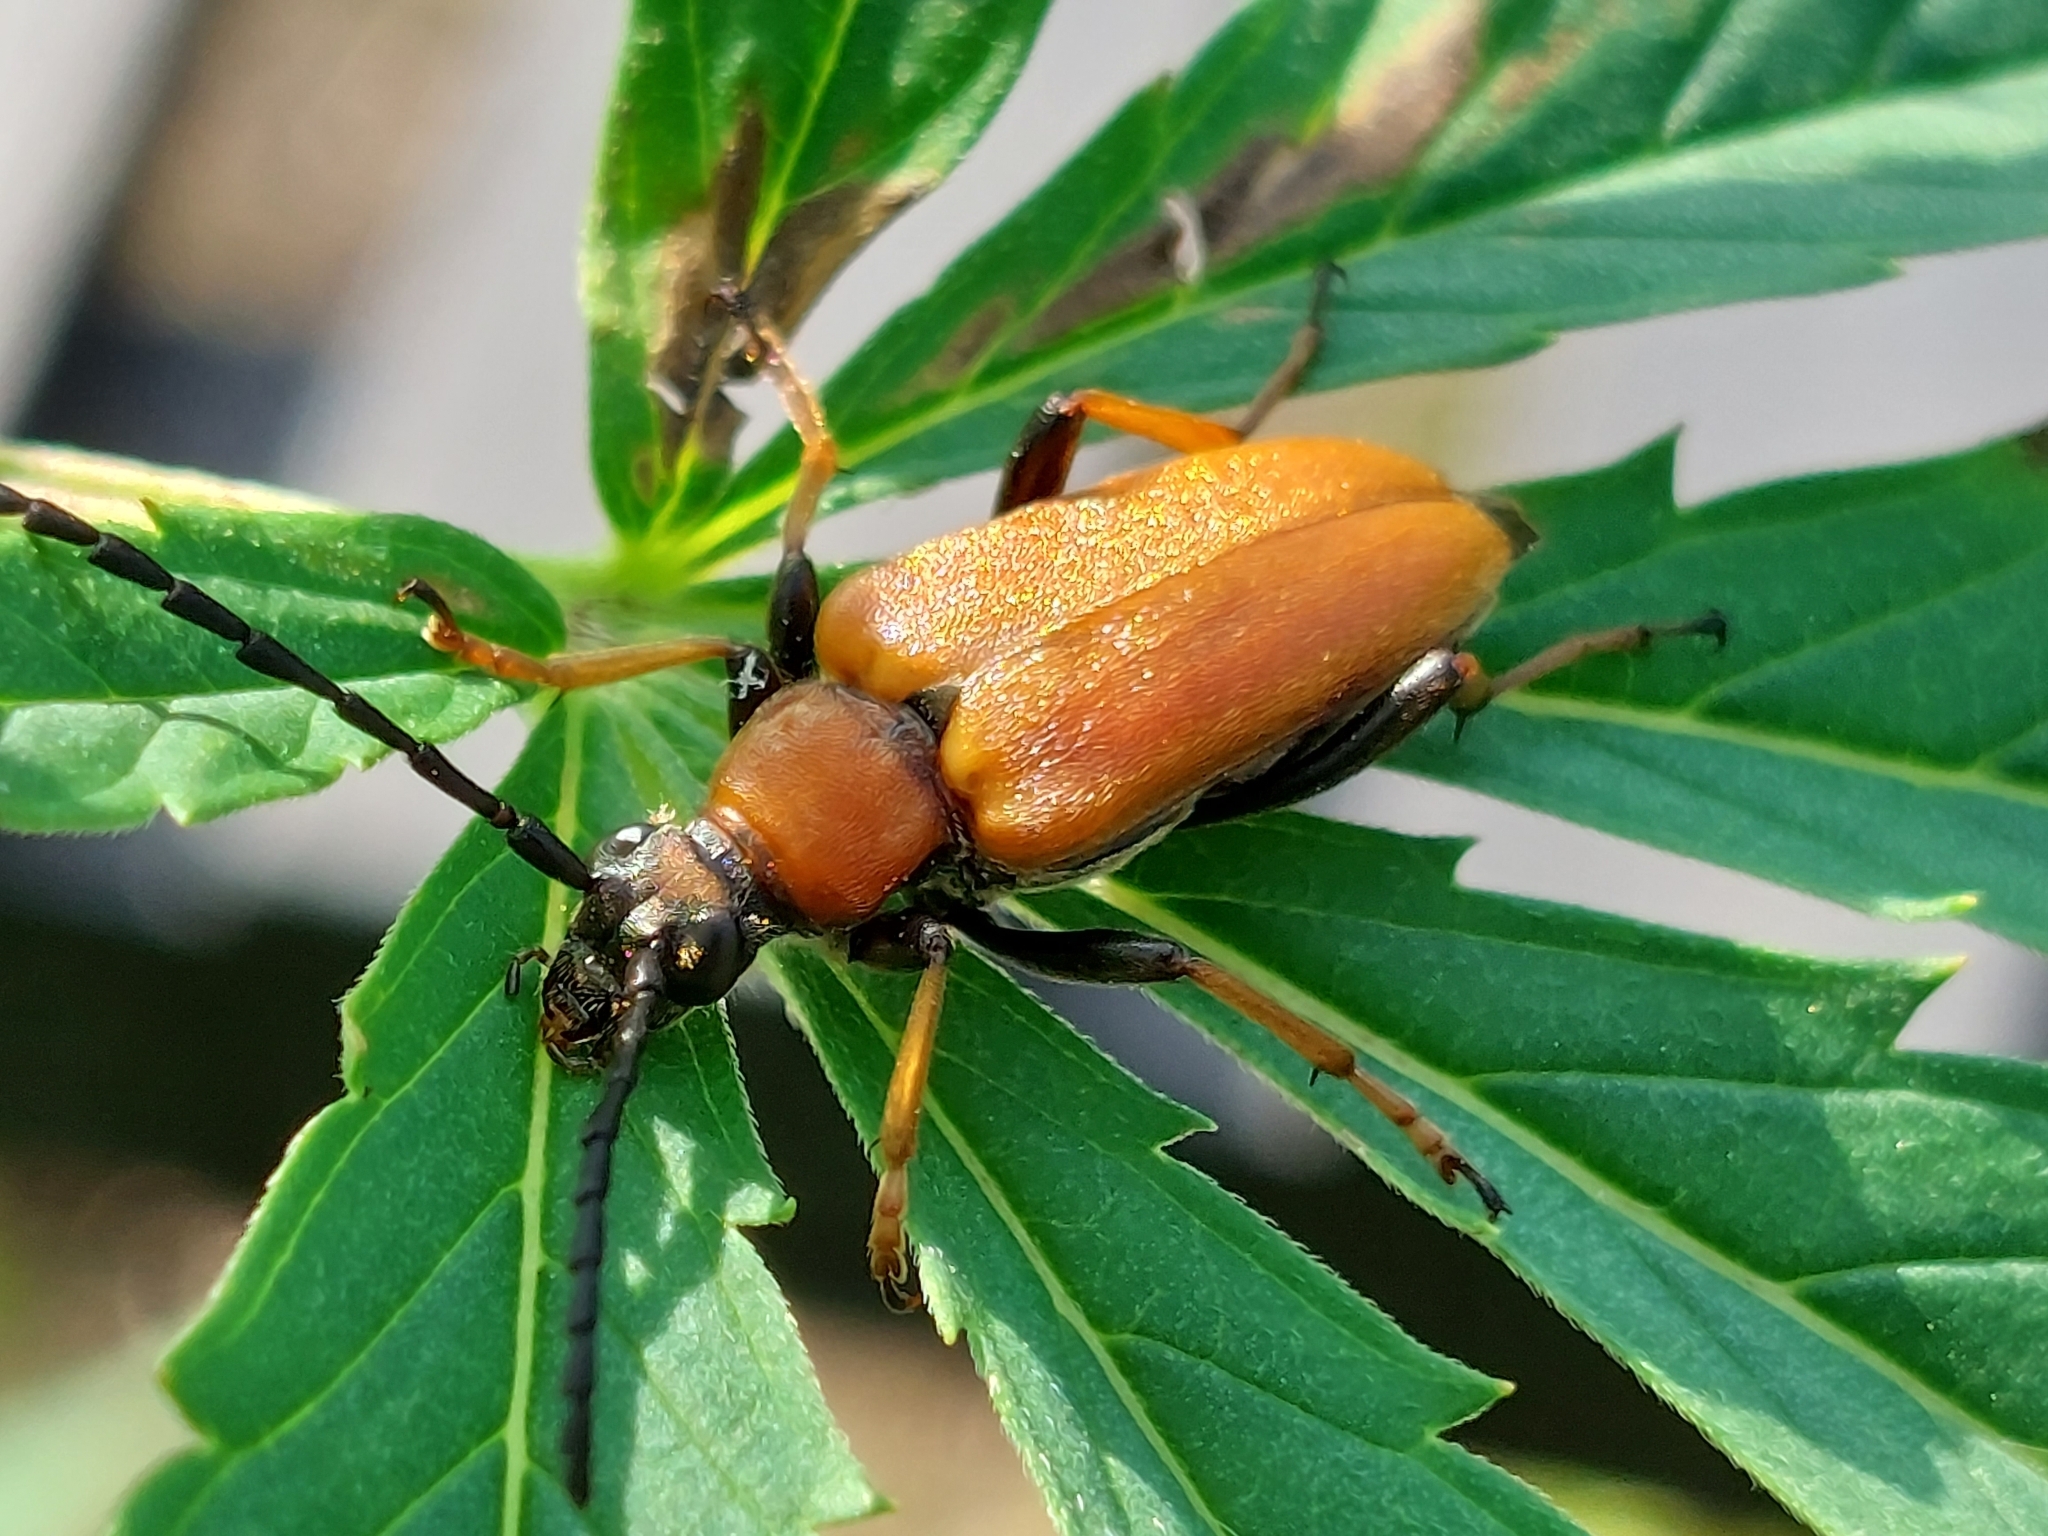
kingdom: Animalia
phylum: Arthropoda
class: Insecta
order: Coleoptera
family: Cerambycidae
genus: Stictoleptura
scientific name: Stictoleptura rubra
